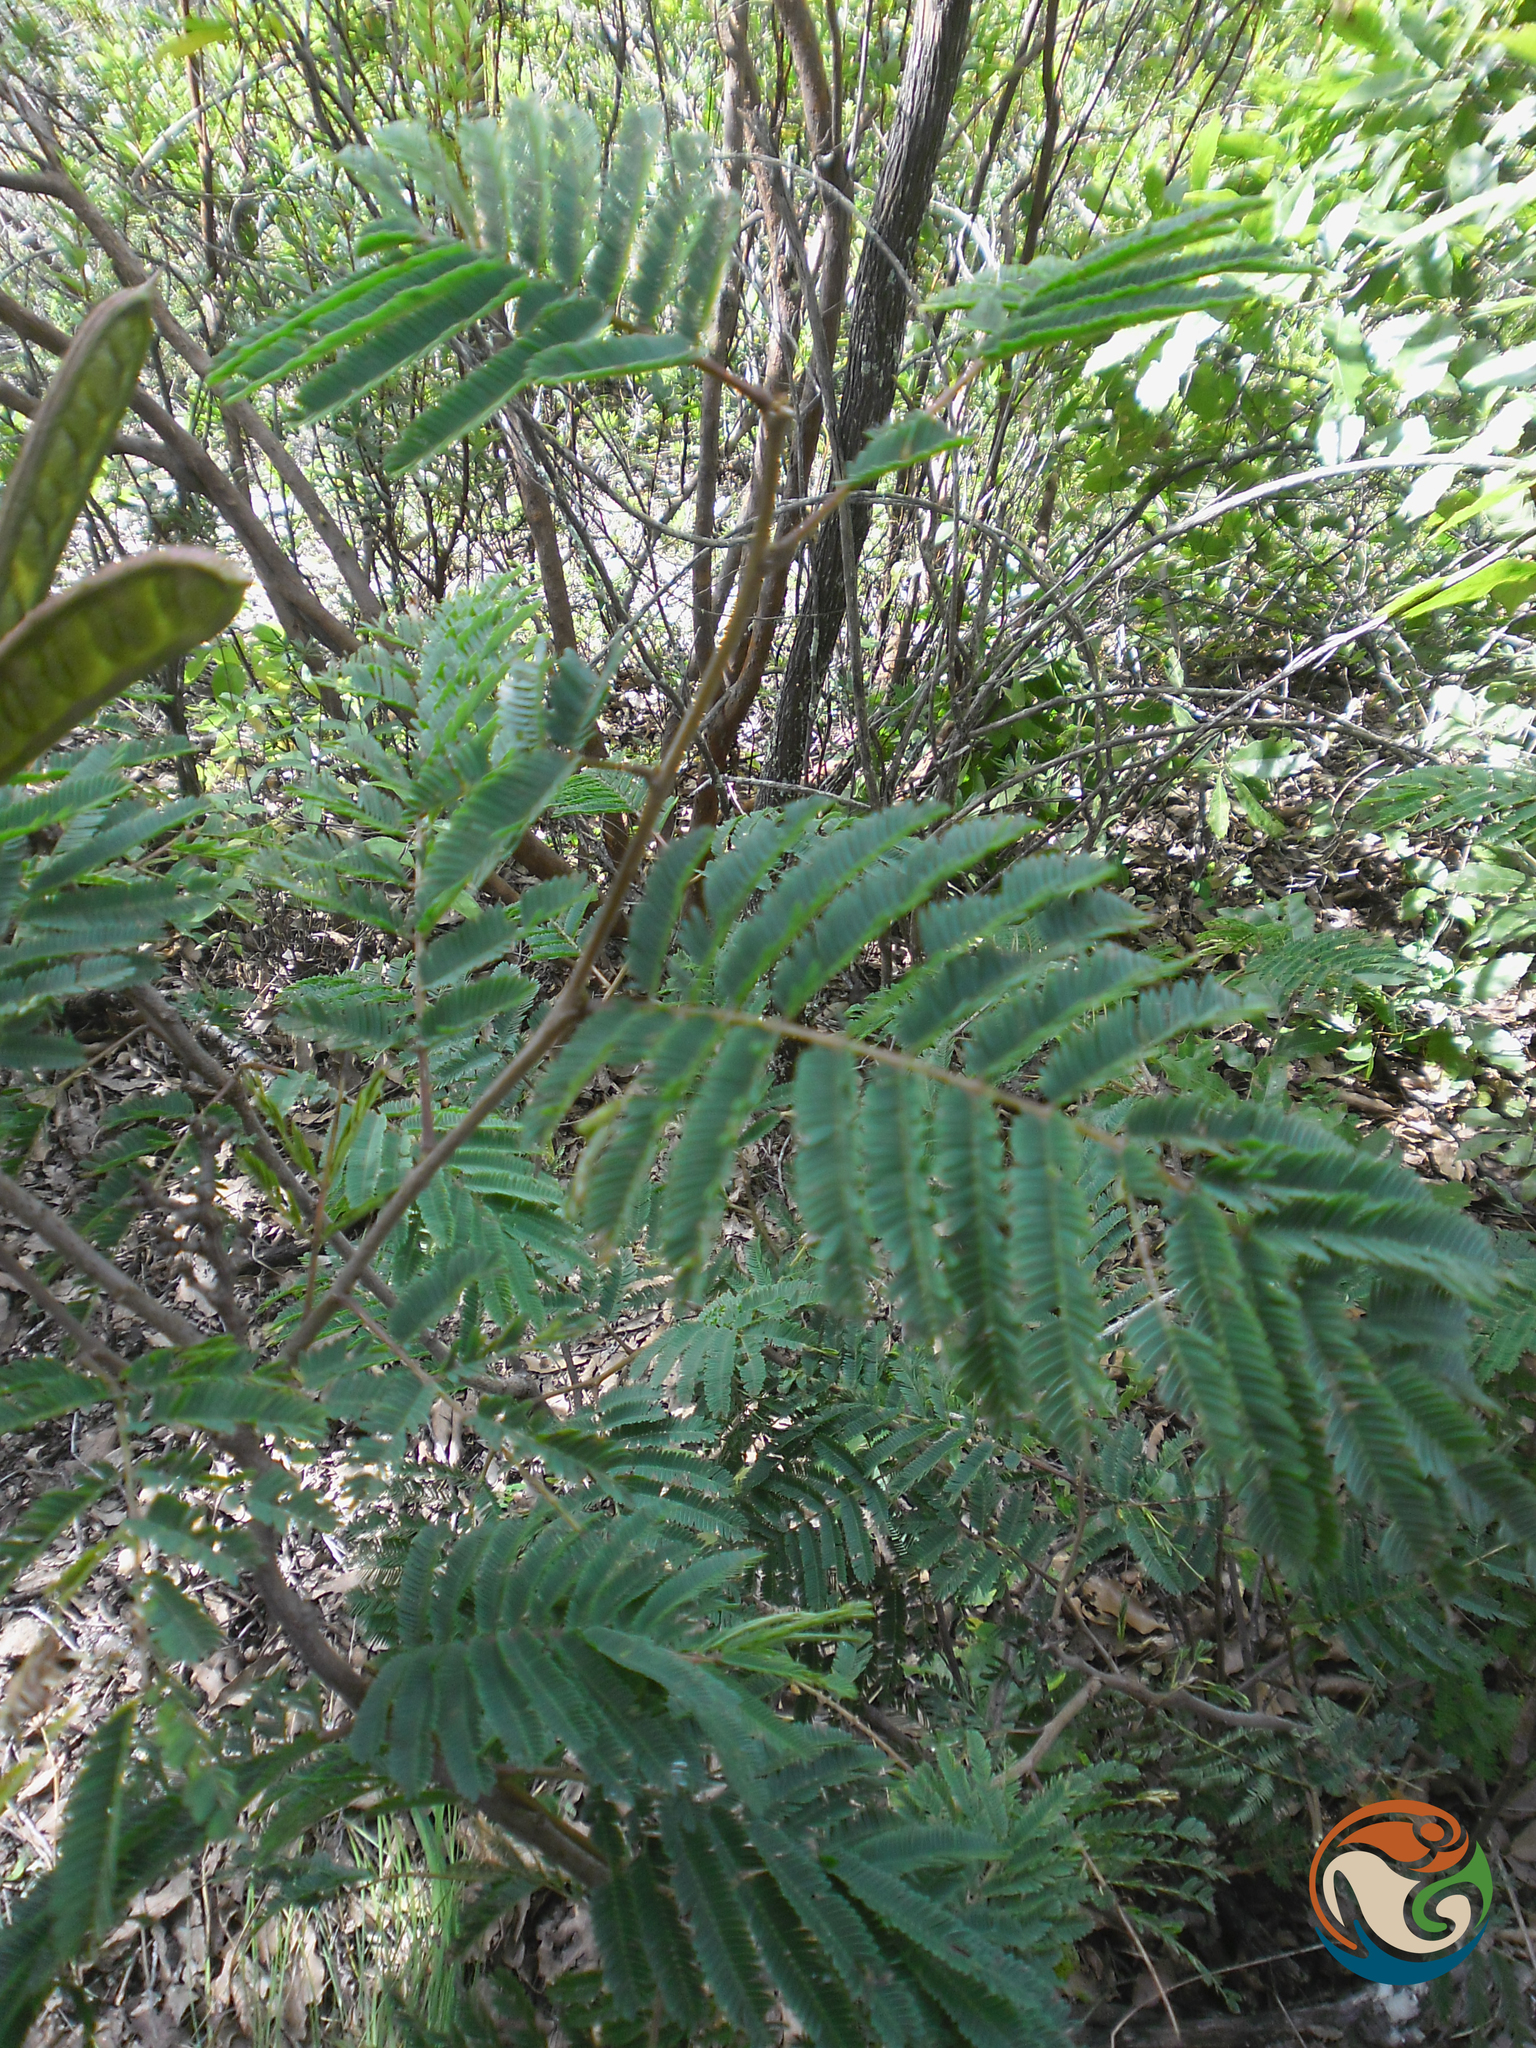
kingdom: Plantae
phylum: Tracheophyta
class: Magnoliopsida
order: Fabales
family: Fabaceae
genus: Calliandra
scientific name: Calliandra houstoniana
